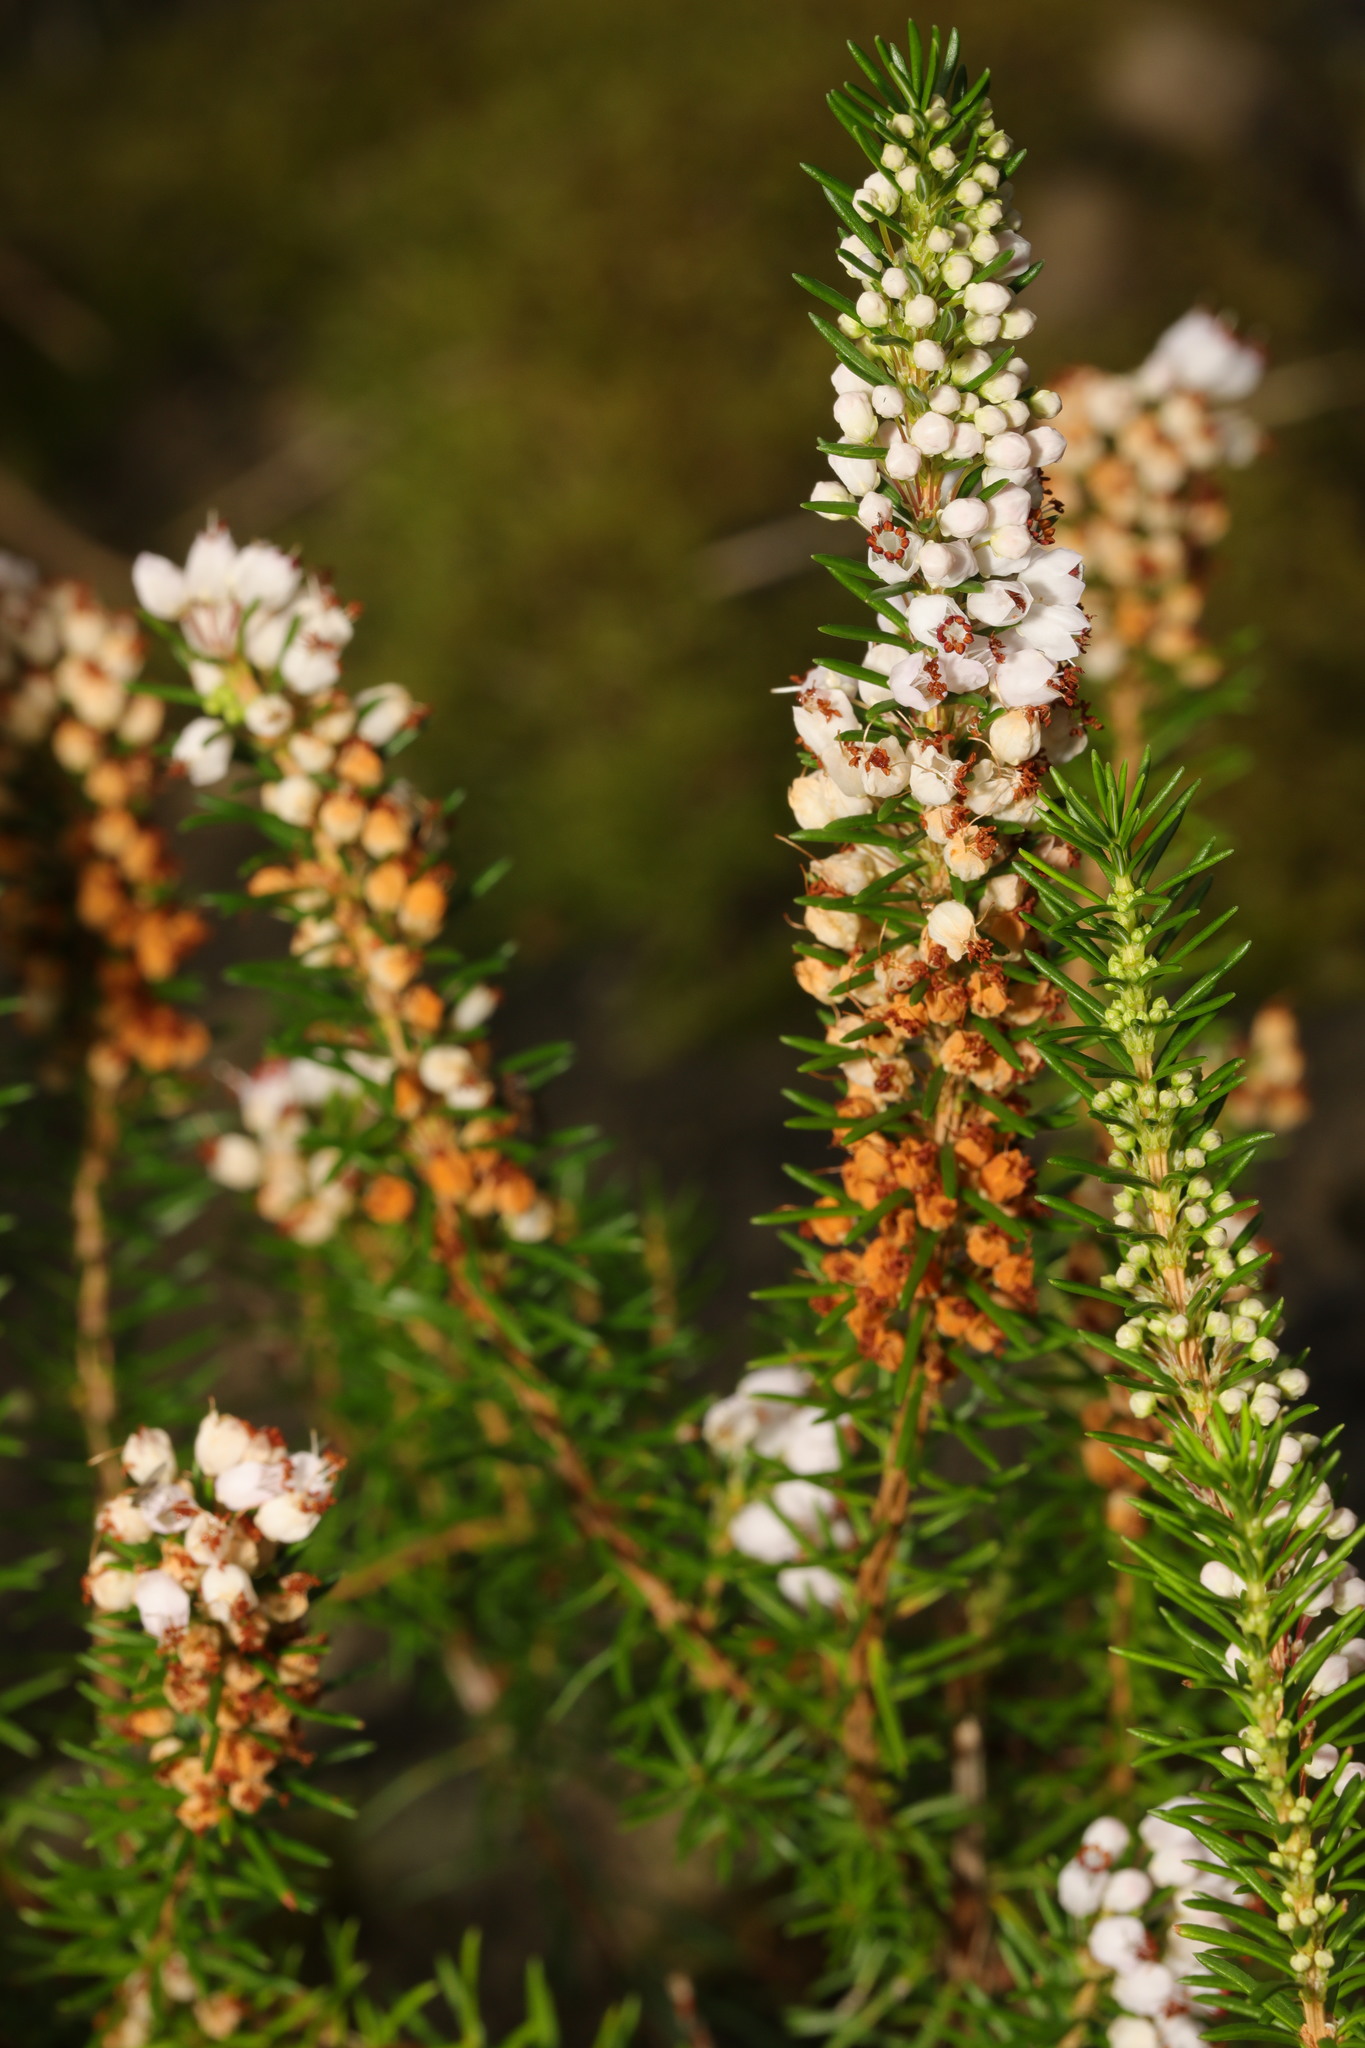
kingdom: Plantae
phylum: Tracheophyta
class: Magnoliopsida
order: Ericales
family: Ericaceae
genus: Erica
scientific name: Erica vagans
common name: Cornish heath
